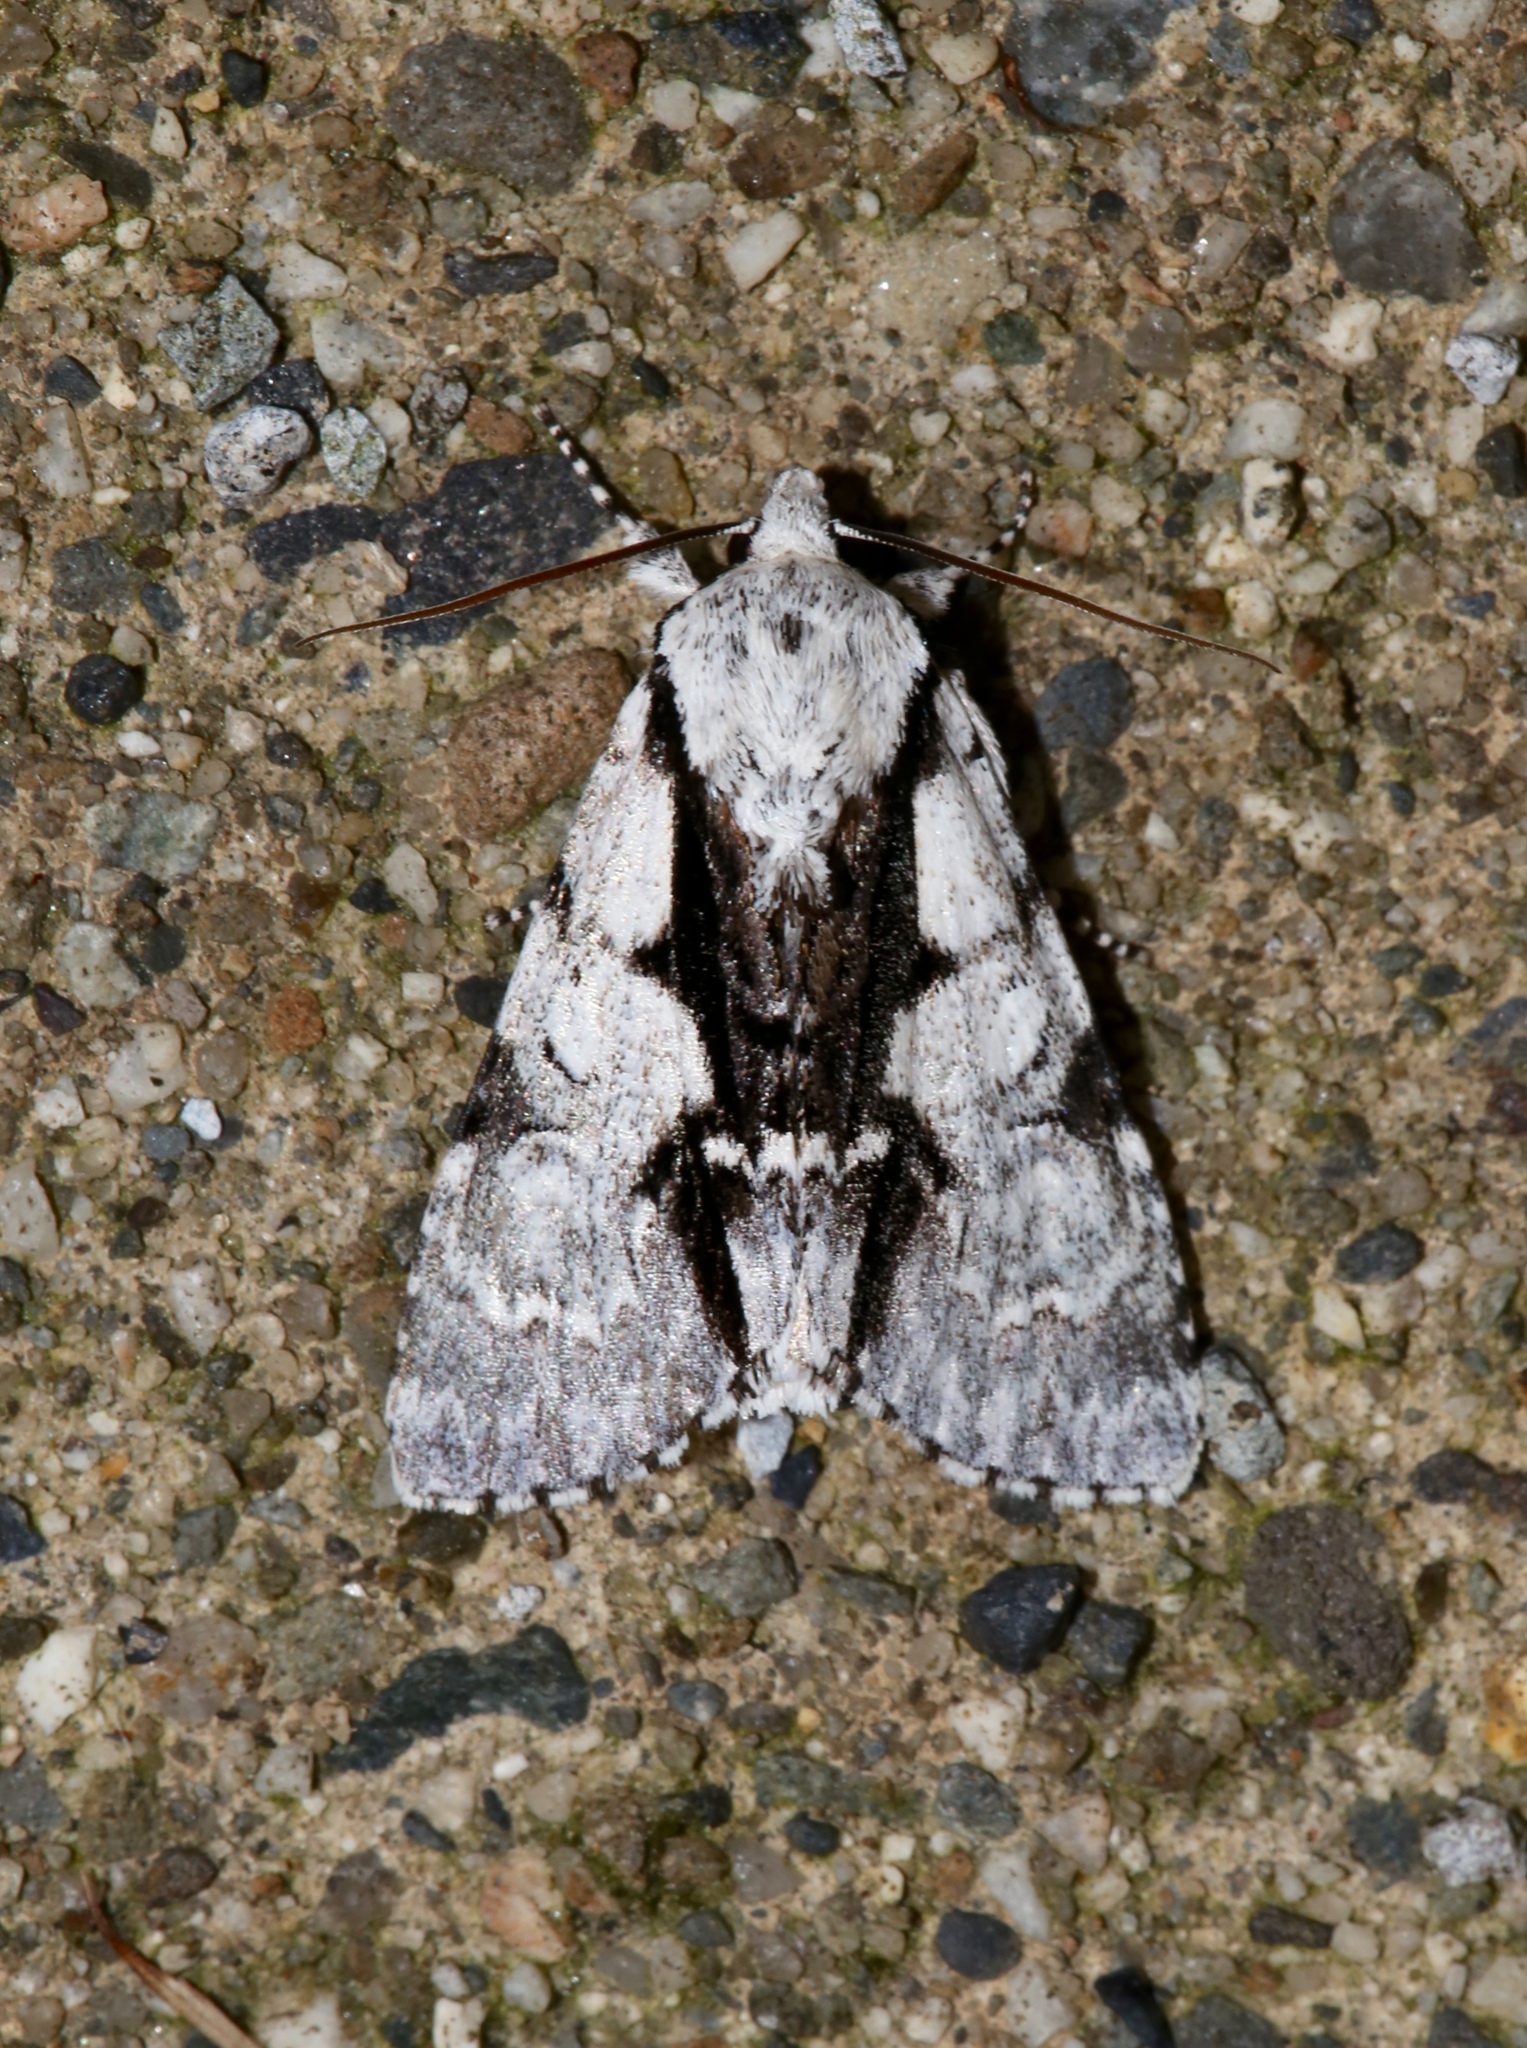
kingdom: Animalia
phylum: Arthropoda
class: Insecta
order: Lepidoptera
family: Noctuidae
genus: Acronicta
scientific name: Acronicta funeralis
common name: Funerary dagger
